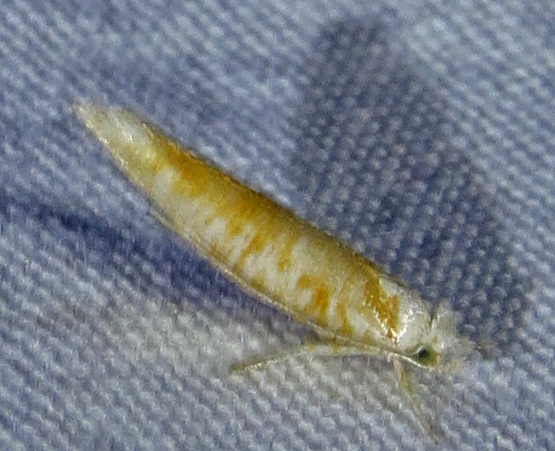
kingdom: Animalia
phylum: Arthropoda
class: Insecta
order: Lepidoptera
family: Yponomeutidae
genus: Zelleria
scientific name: Zelleria retiniella
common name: Brindled zelleria
